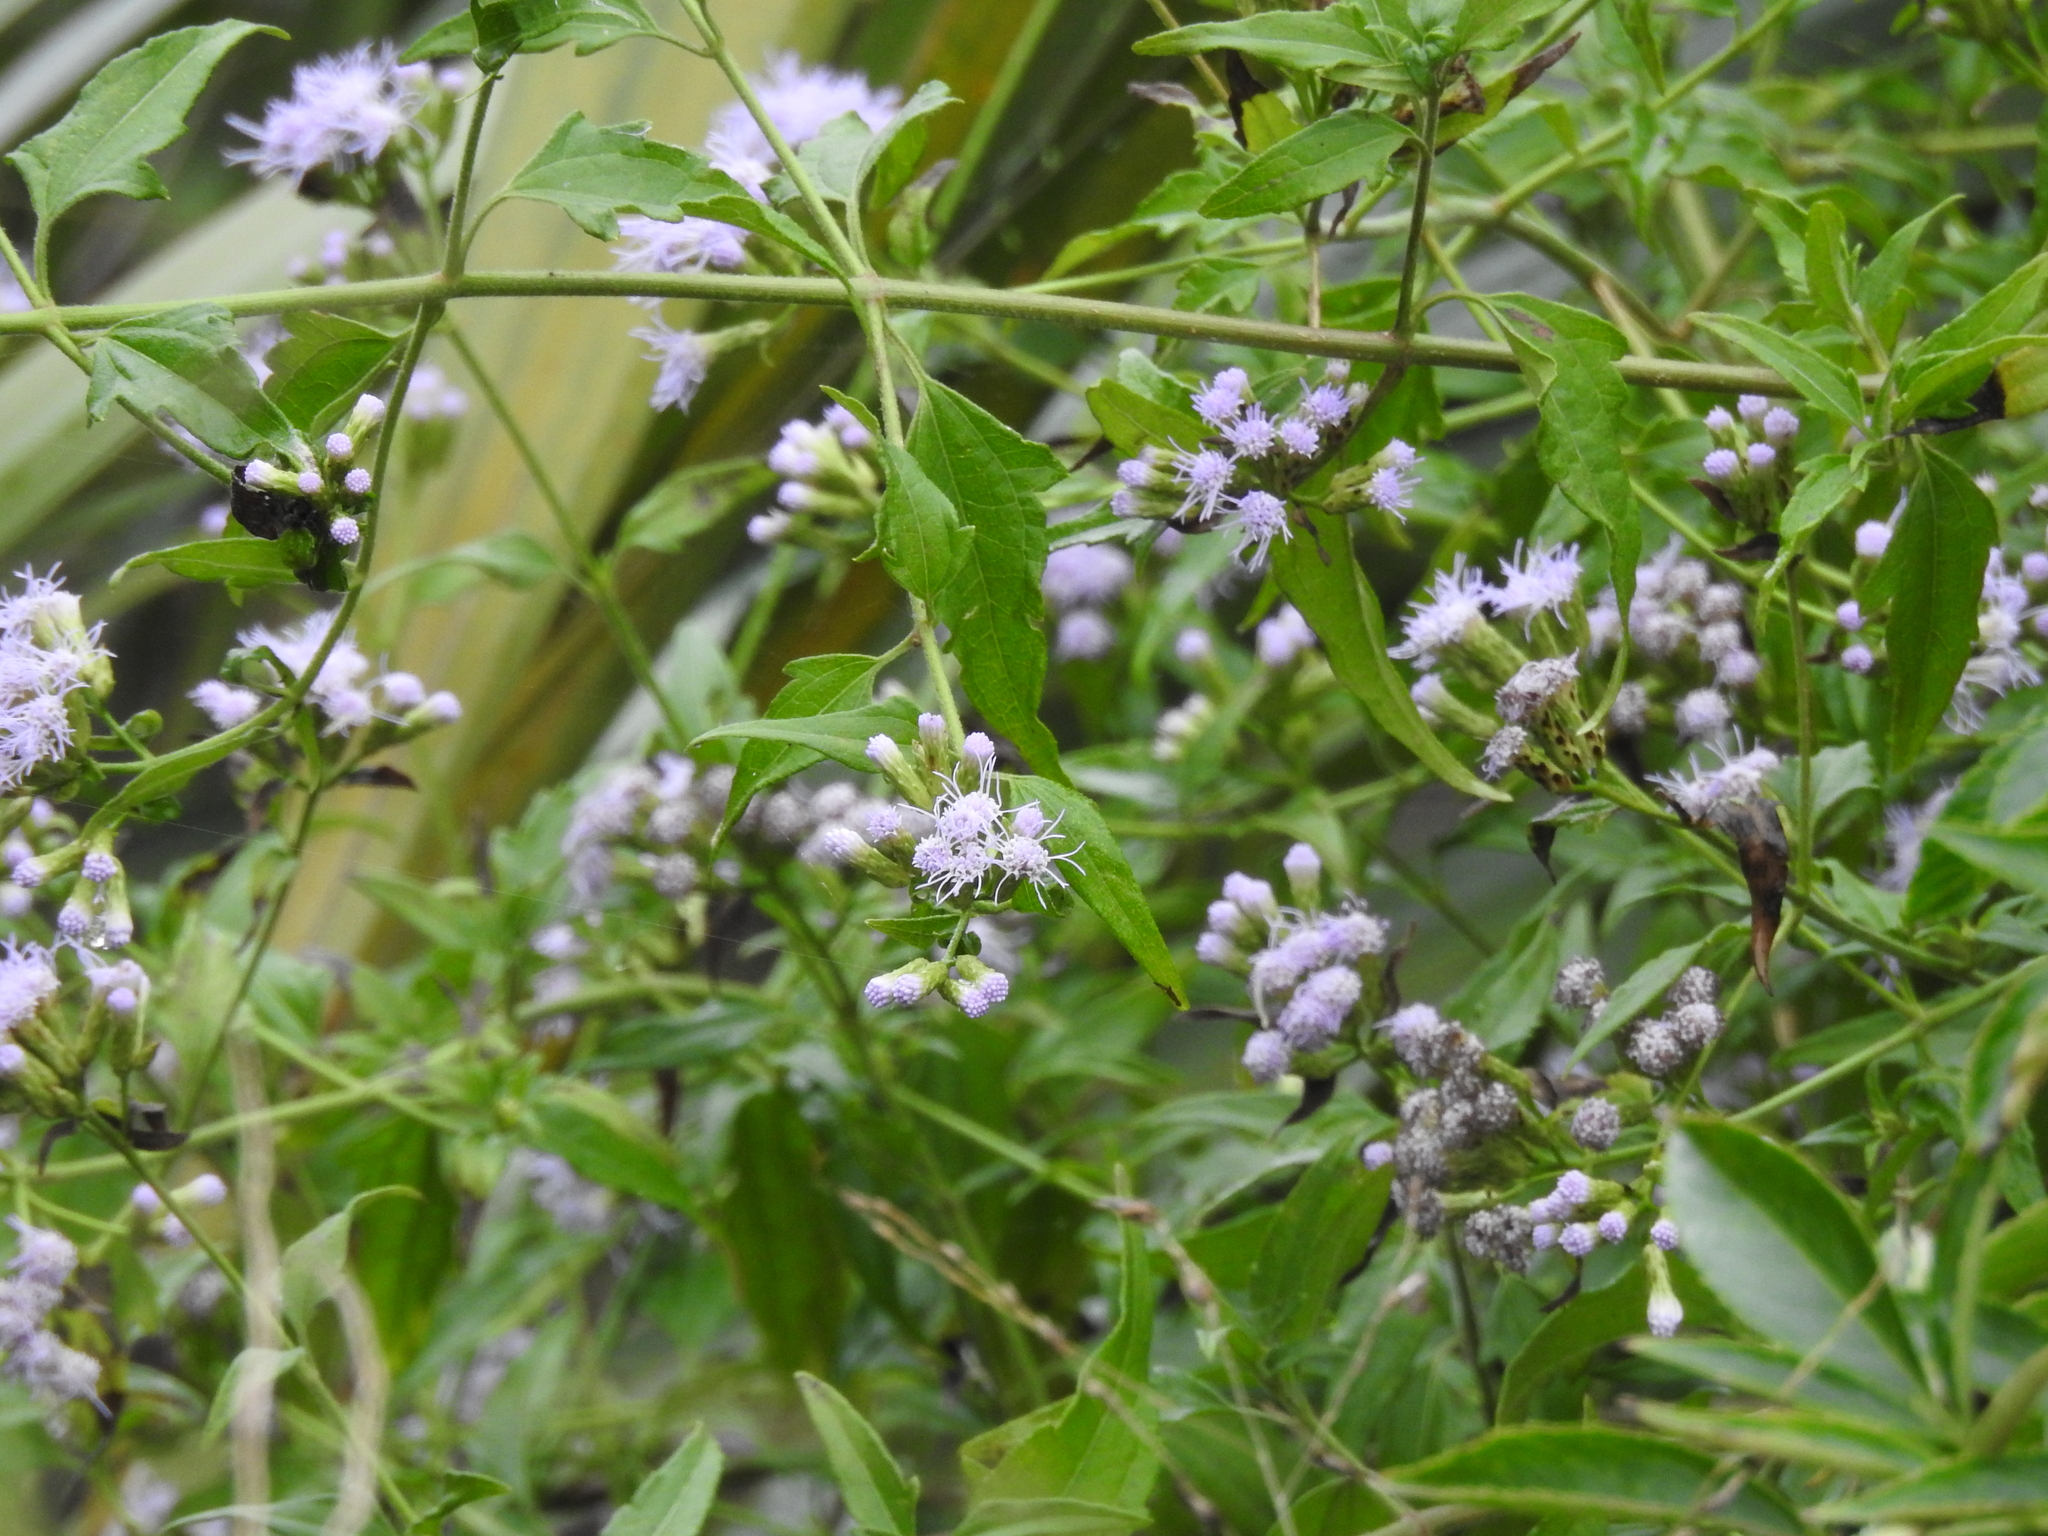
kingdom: Plantae
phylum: Tracheophyta
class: Magnoliopsida
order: Asterales
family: Asteraceae
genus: Chromolaena
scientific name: Chromolaena odorata
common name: Siamweed
